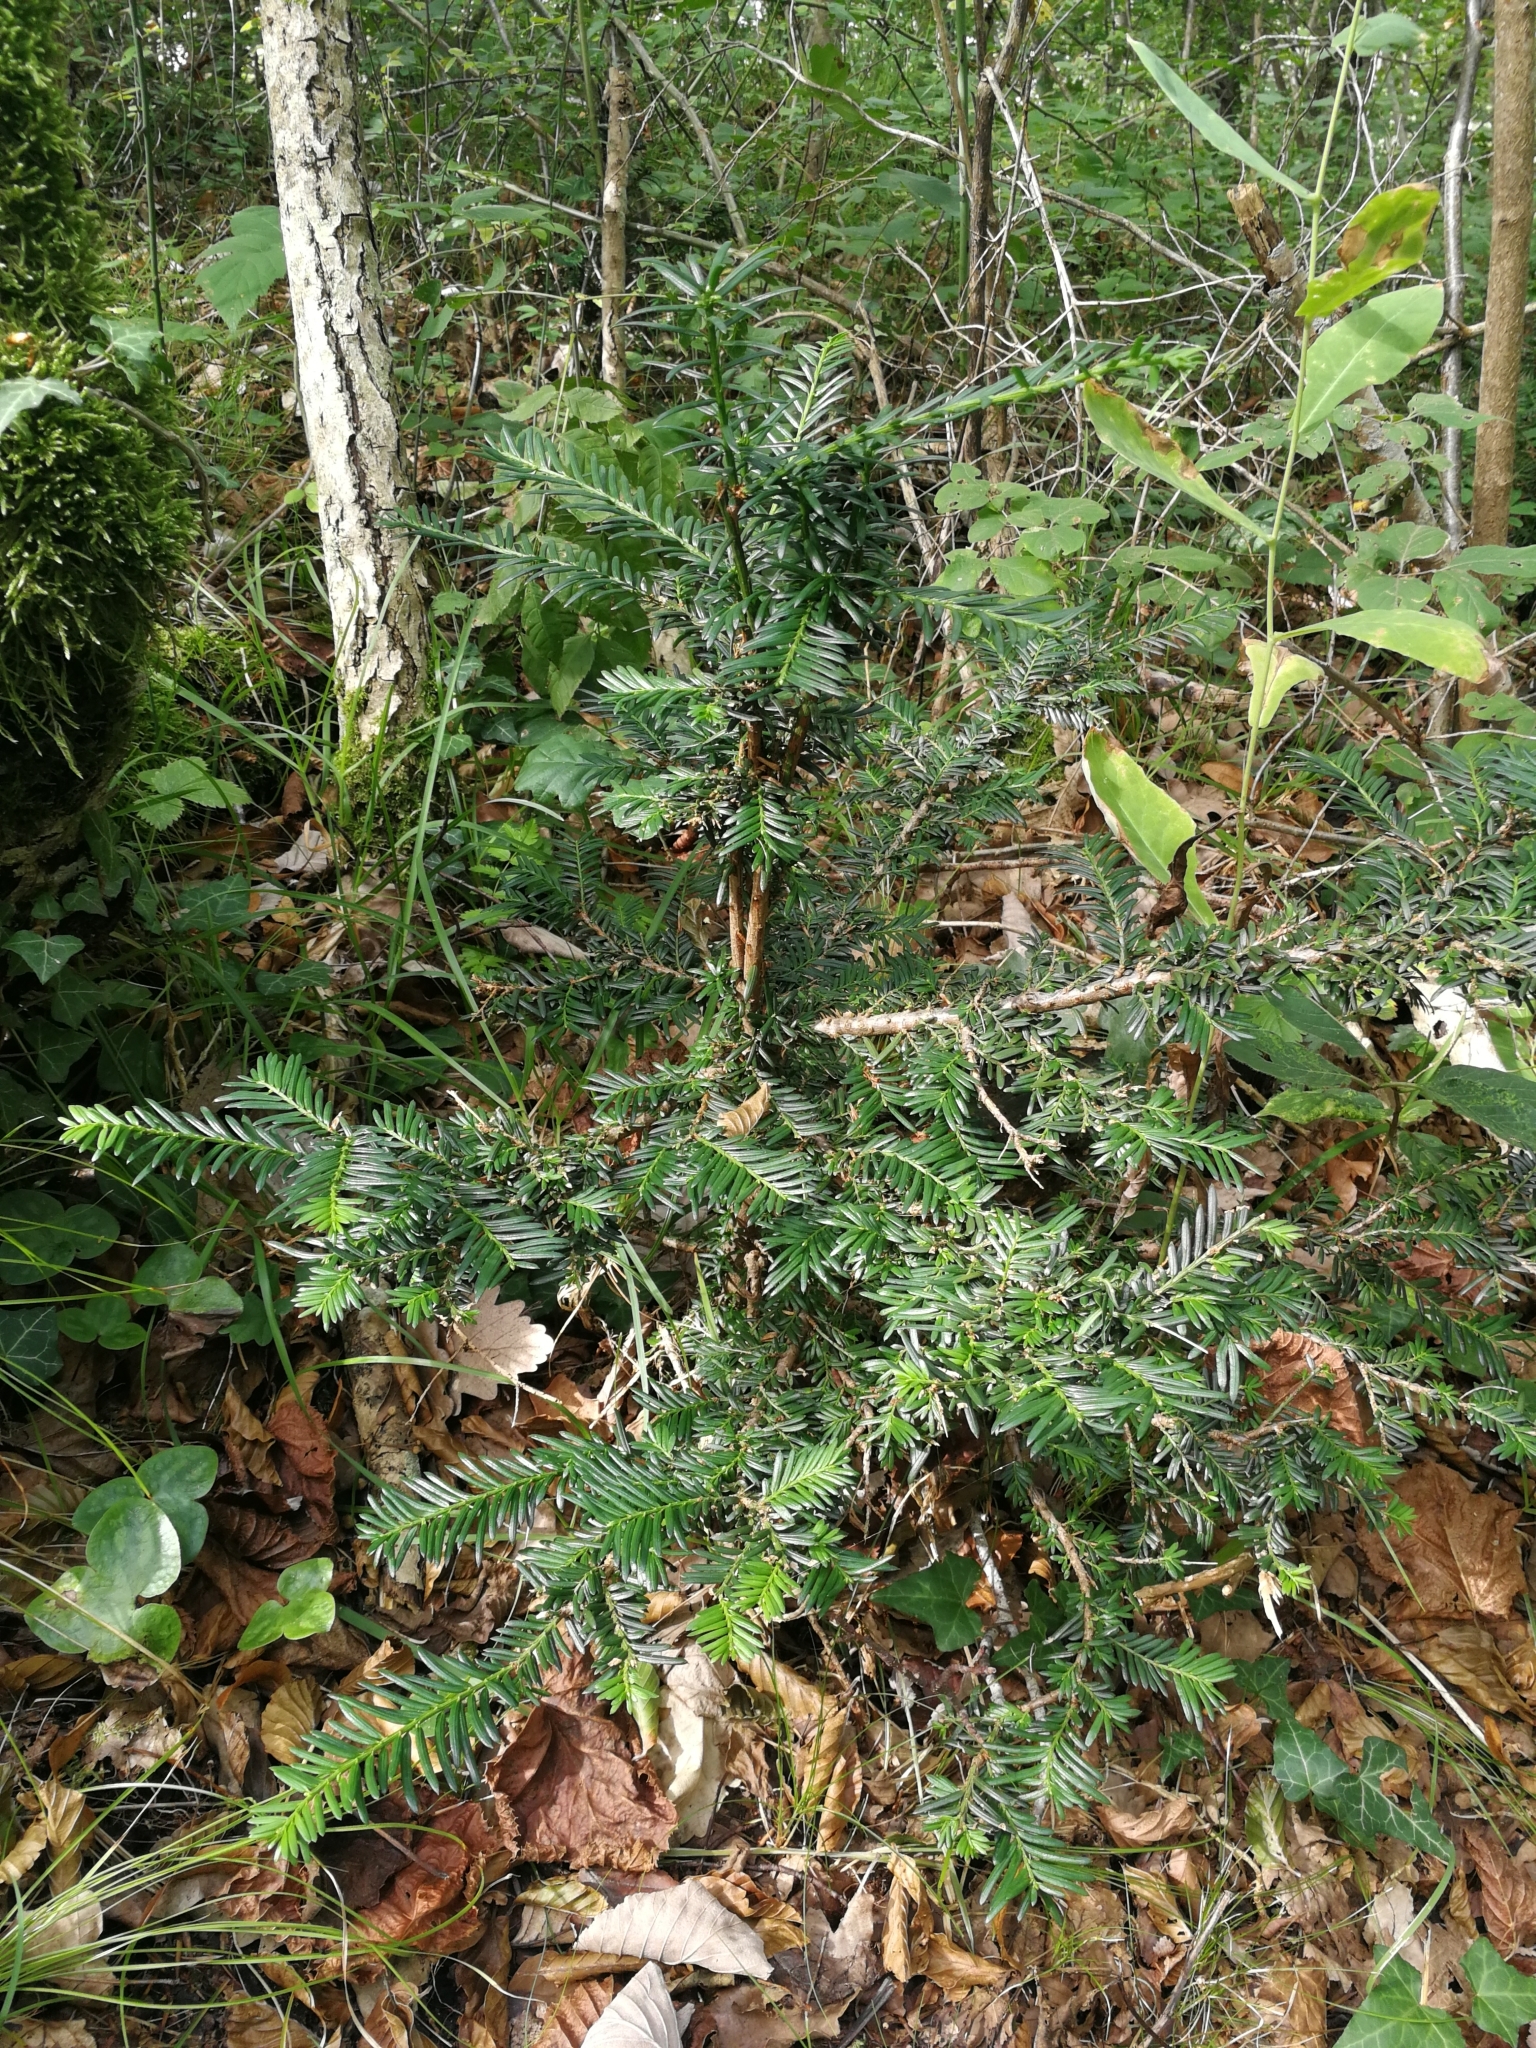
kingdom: Plantae
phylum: Tracheophyta
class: Pinopsida
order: Pinales
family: Taxaceae
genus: Taxus
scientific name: Taxus baccata
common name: Yew
